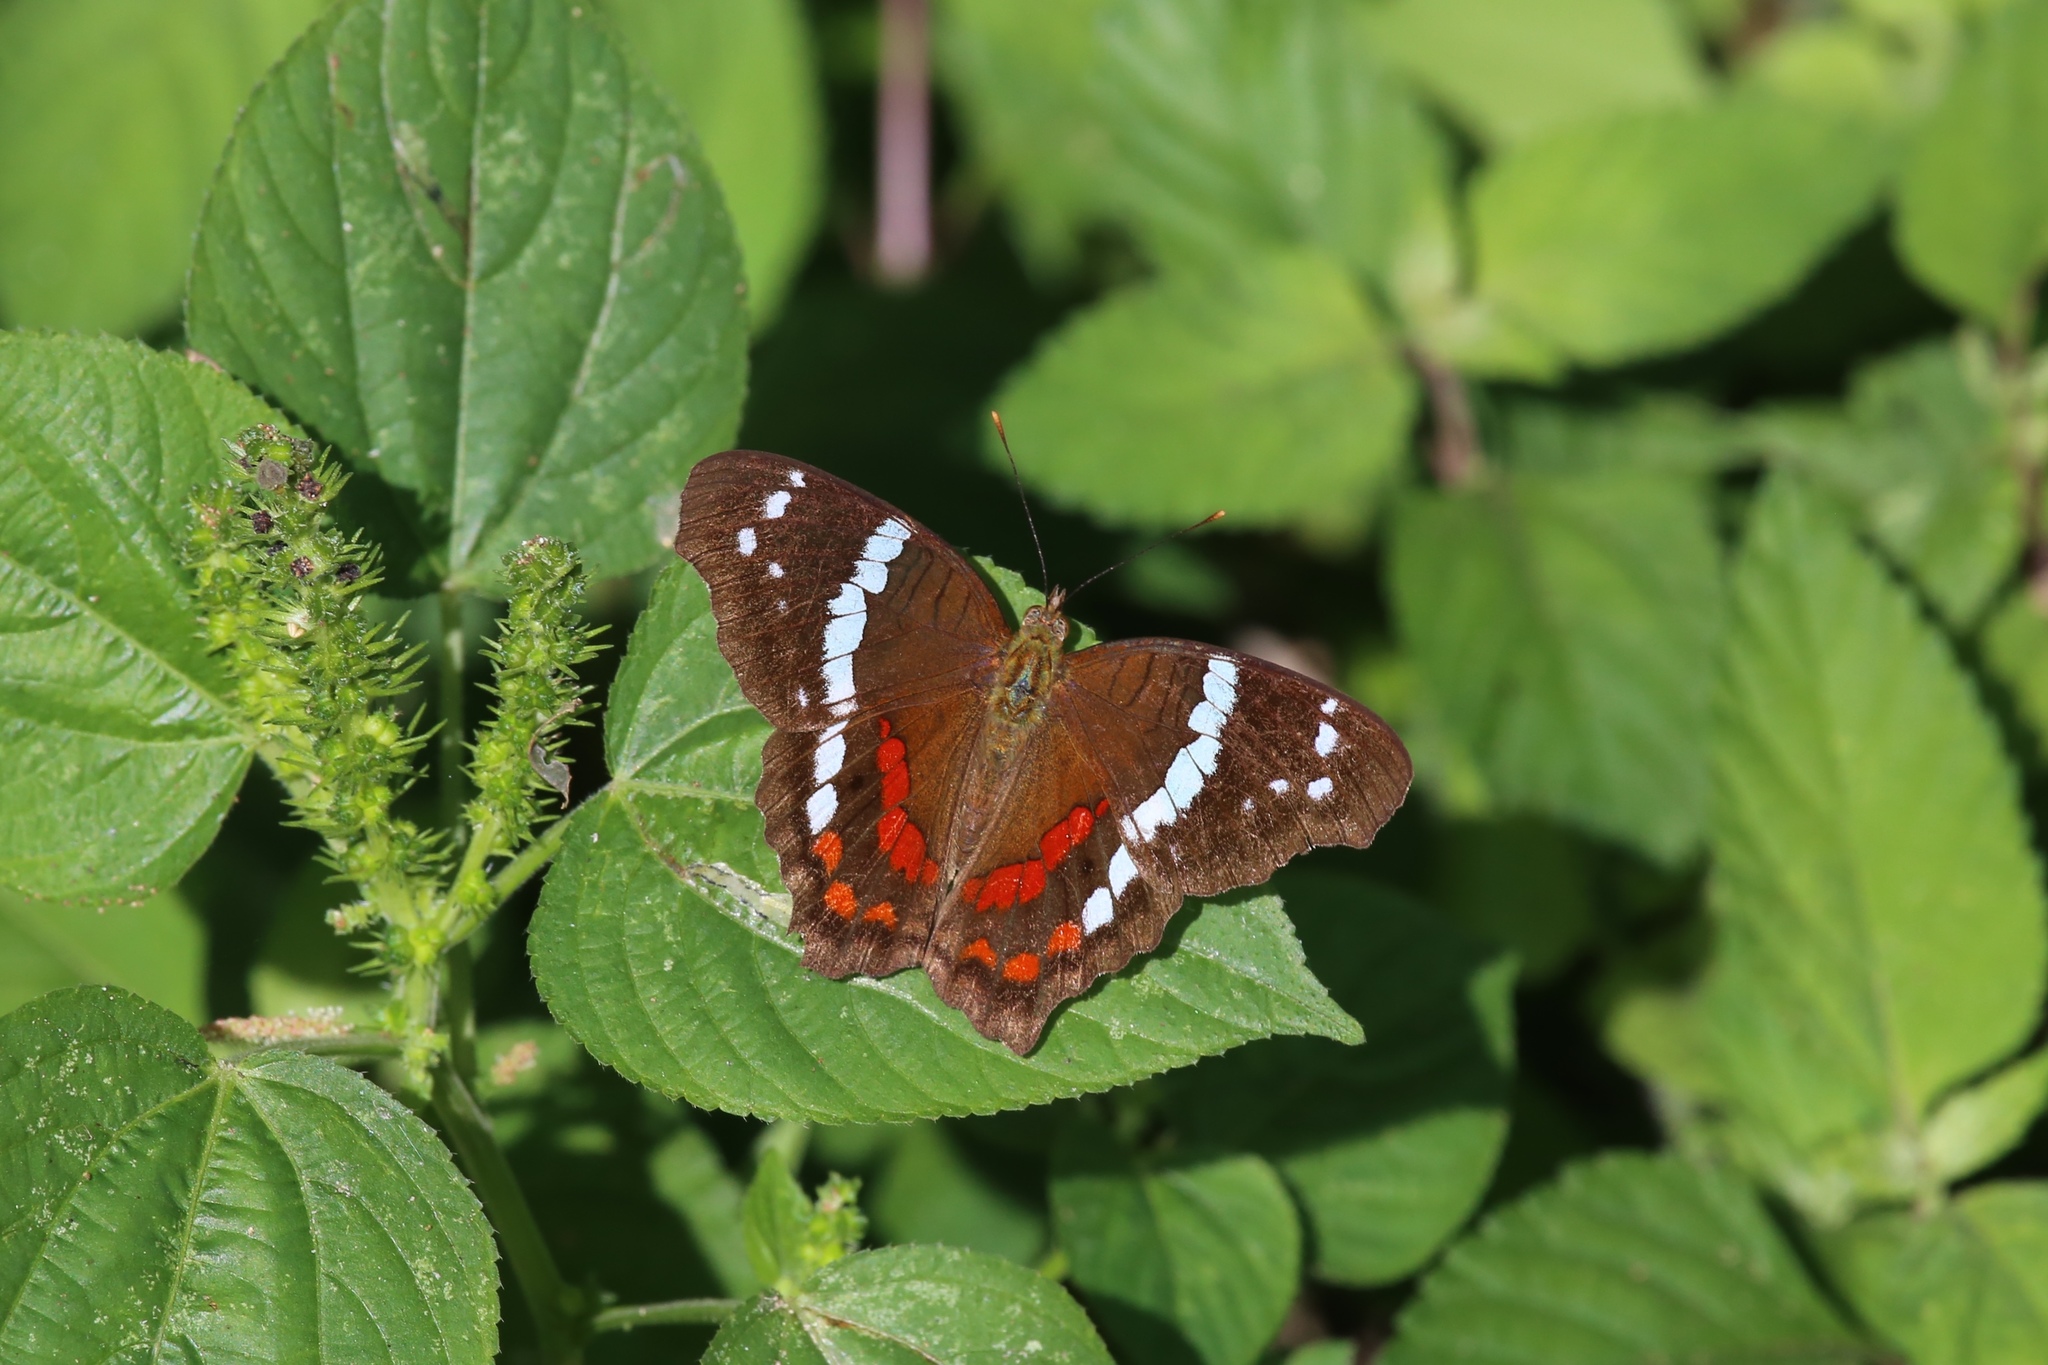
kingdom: Animalia
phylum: Arthropoda
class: Insecta
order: Lepidoptera
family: Nymphalidae
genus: Anartia
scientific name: Anartia fatima
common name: Banded peacock
